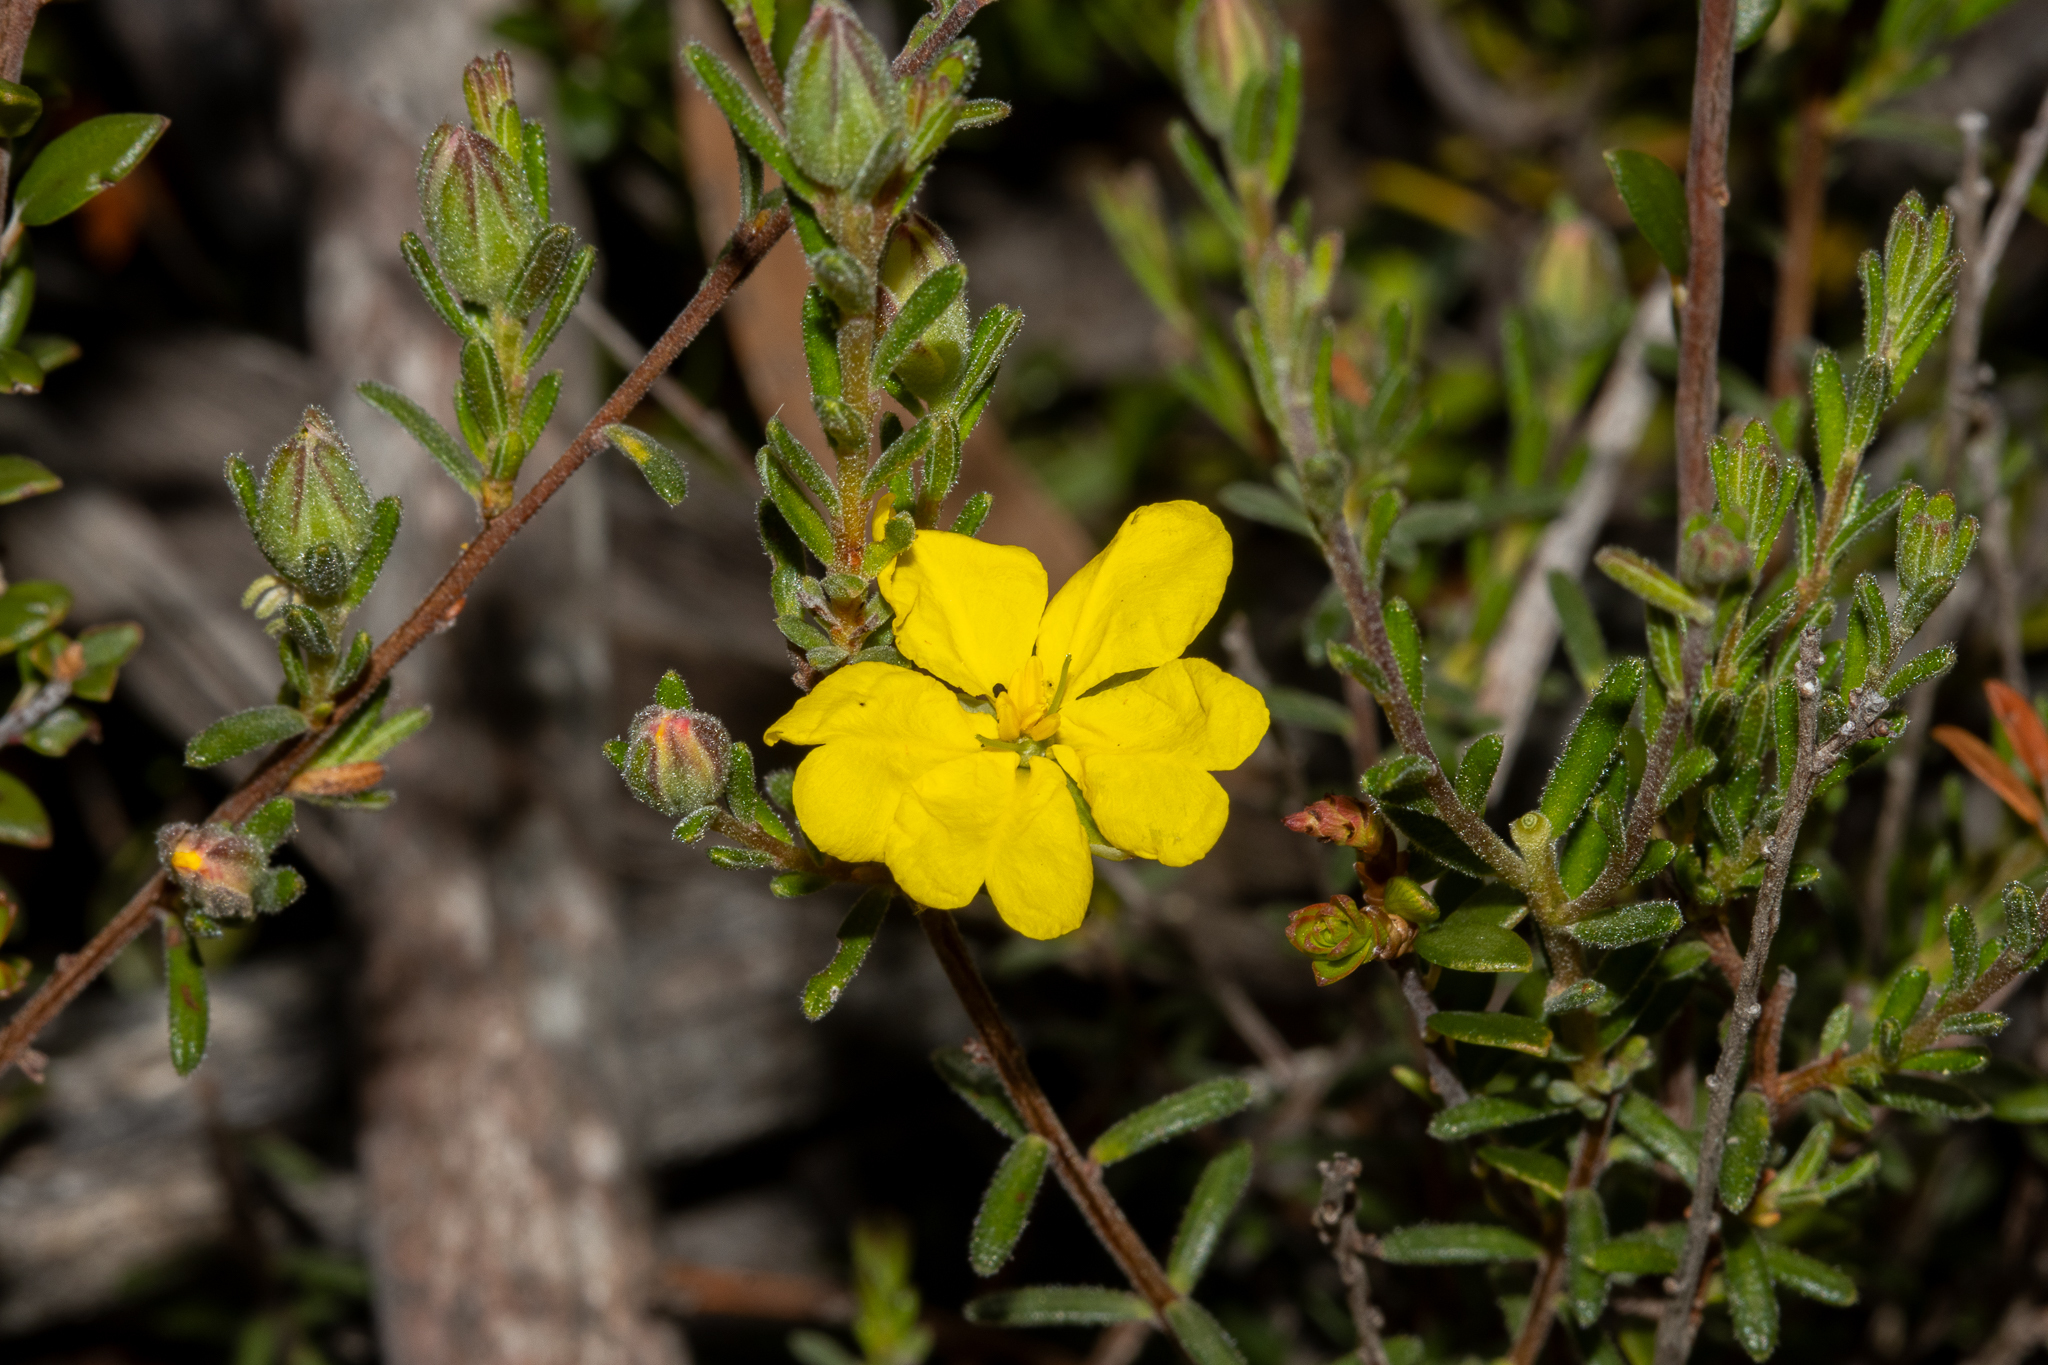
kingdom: Plantae
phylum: Tracheophyta
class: Magnoliopsida
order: Dilleniales
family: Dilleniaceae
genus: Hibbertia
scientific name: Hibbertia devitata
